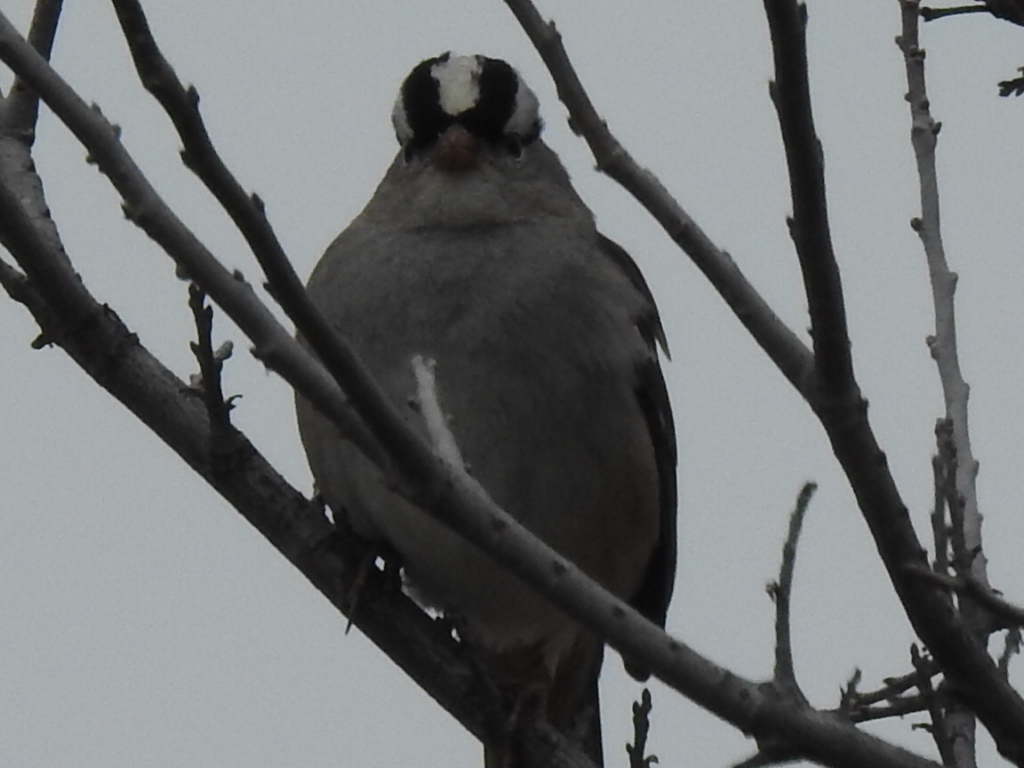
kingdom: Animalia
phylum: Chordata
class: Aves
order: Passeriformes
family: Passerellidae
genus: Zonotrichia
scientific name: Zonotrichia leucophrys
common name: White-crowned sparrow
